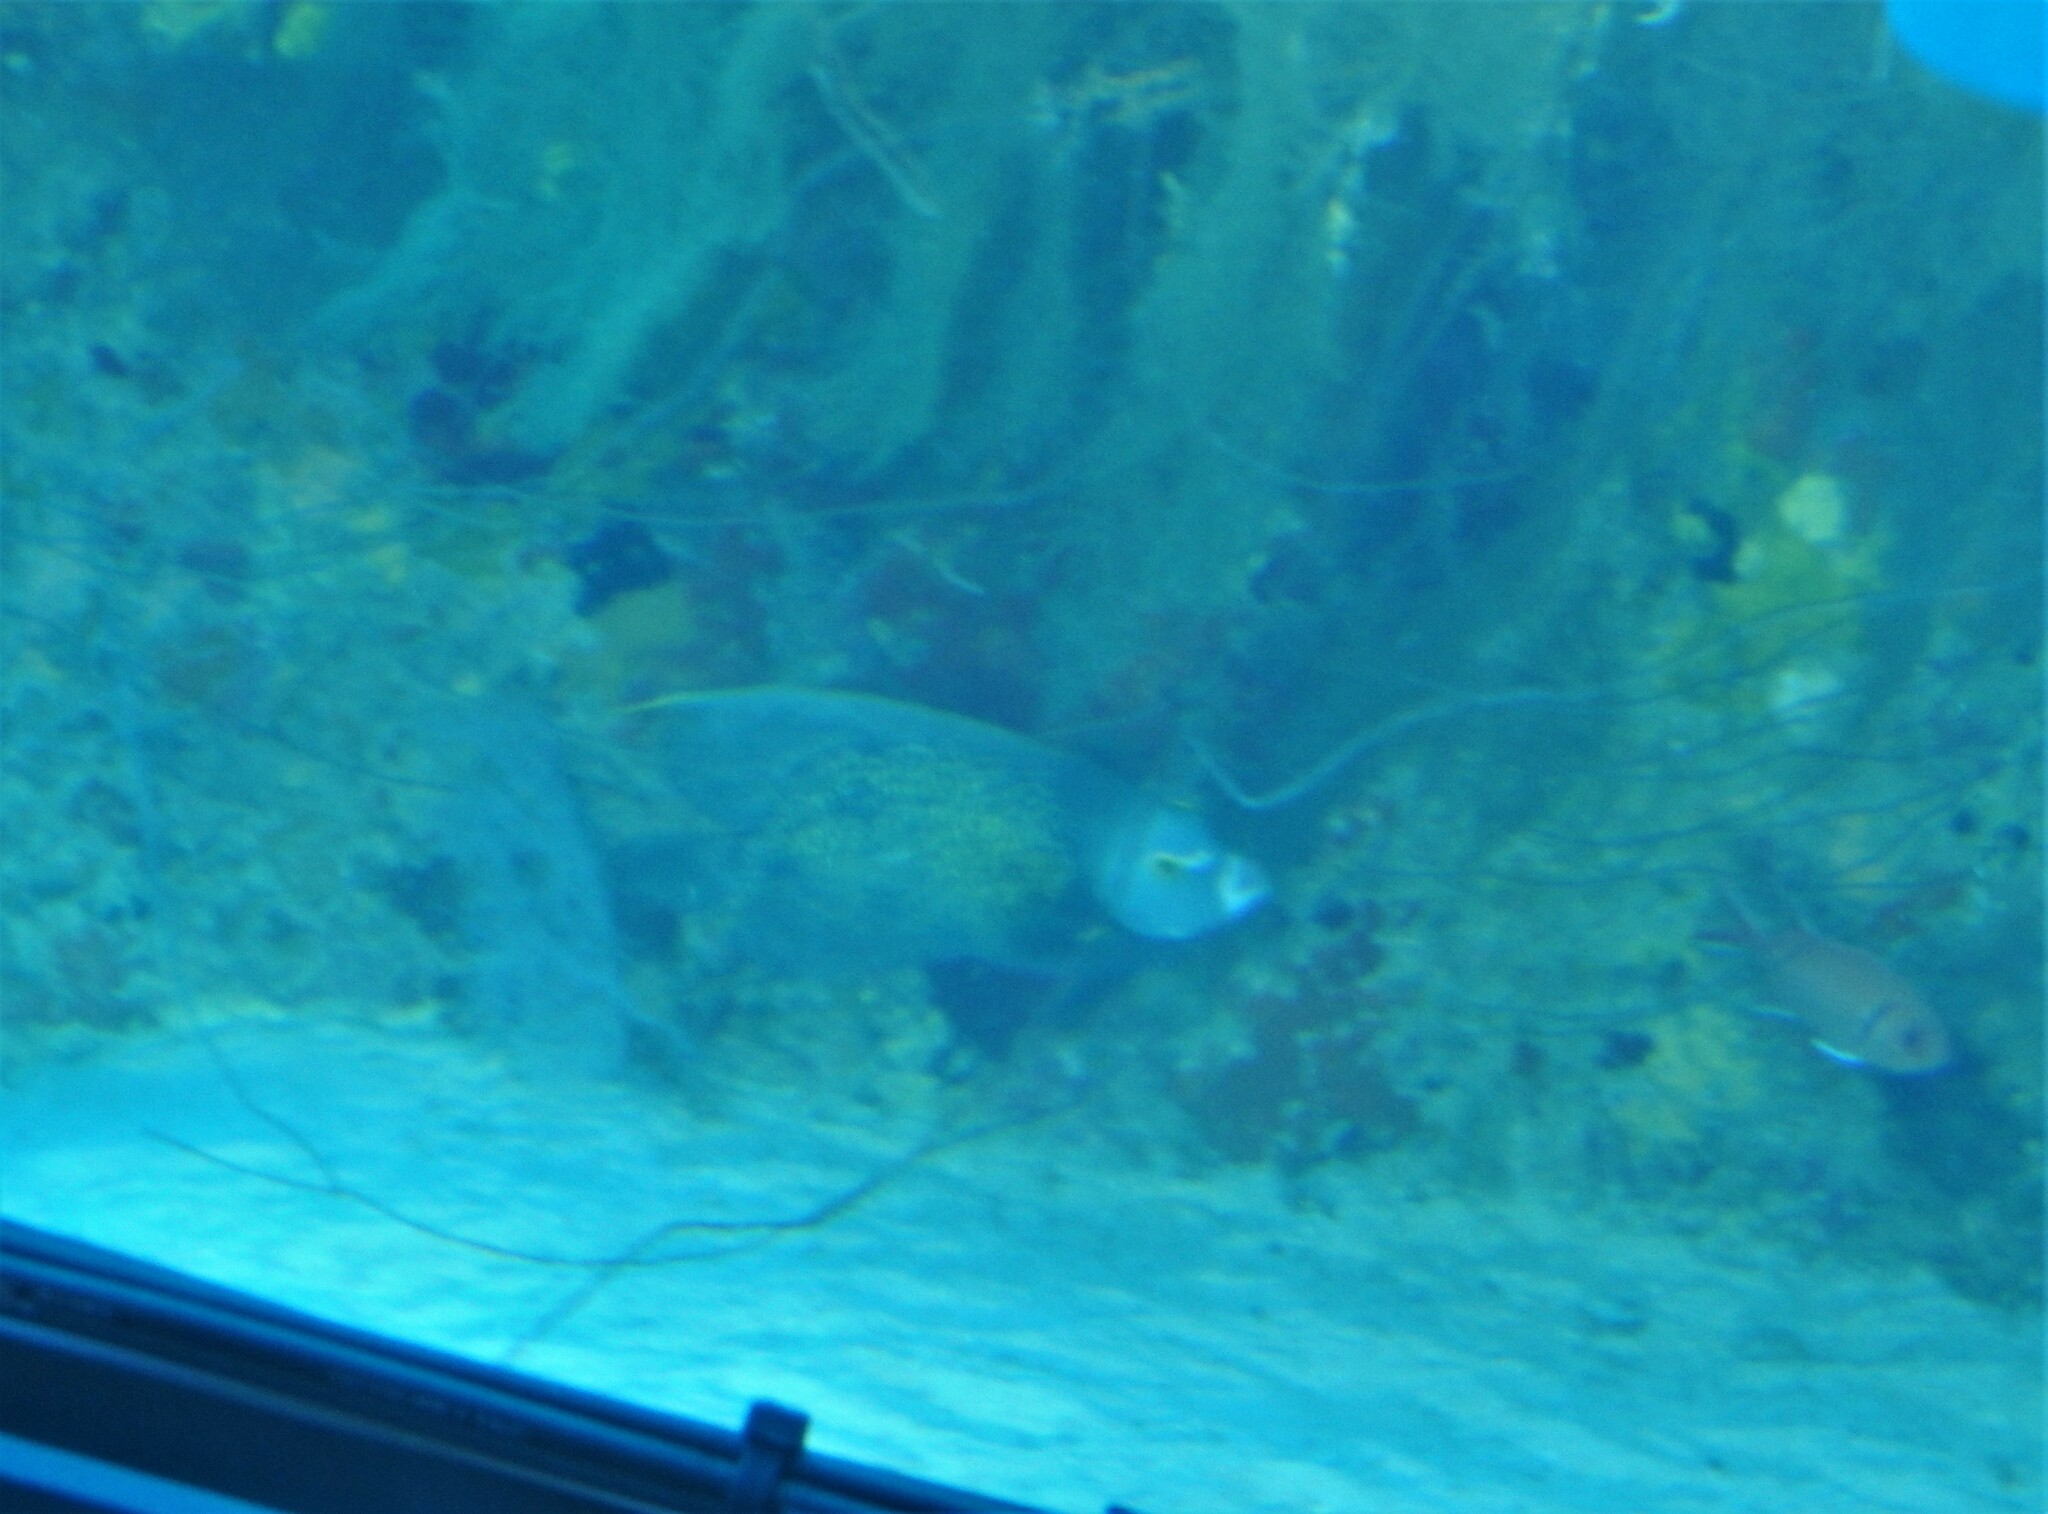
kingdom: Animalia
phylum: Chordata
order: Perciformes
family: Pomacanthidae
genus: Pomacanthus
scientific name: Pomacanthus paru
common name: French angelfish
